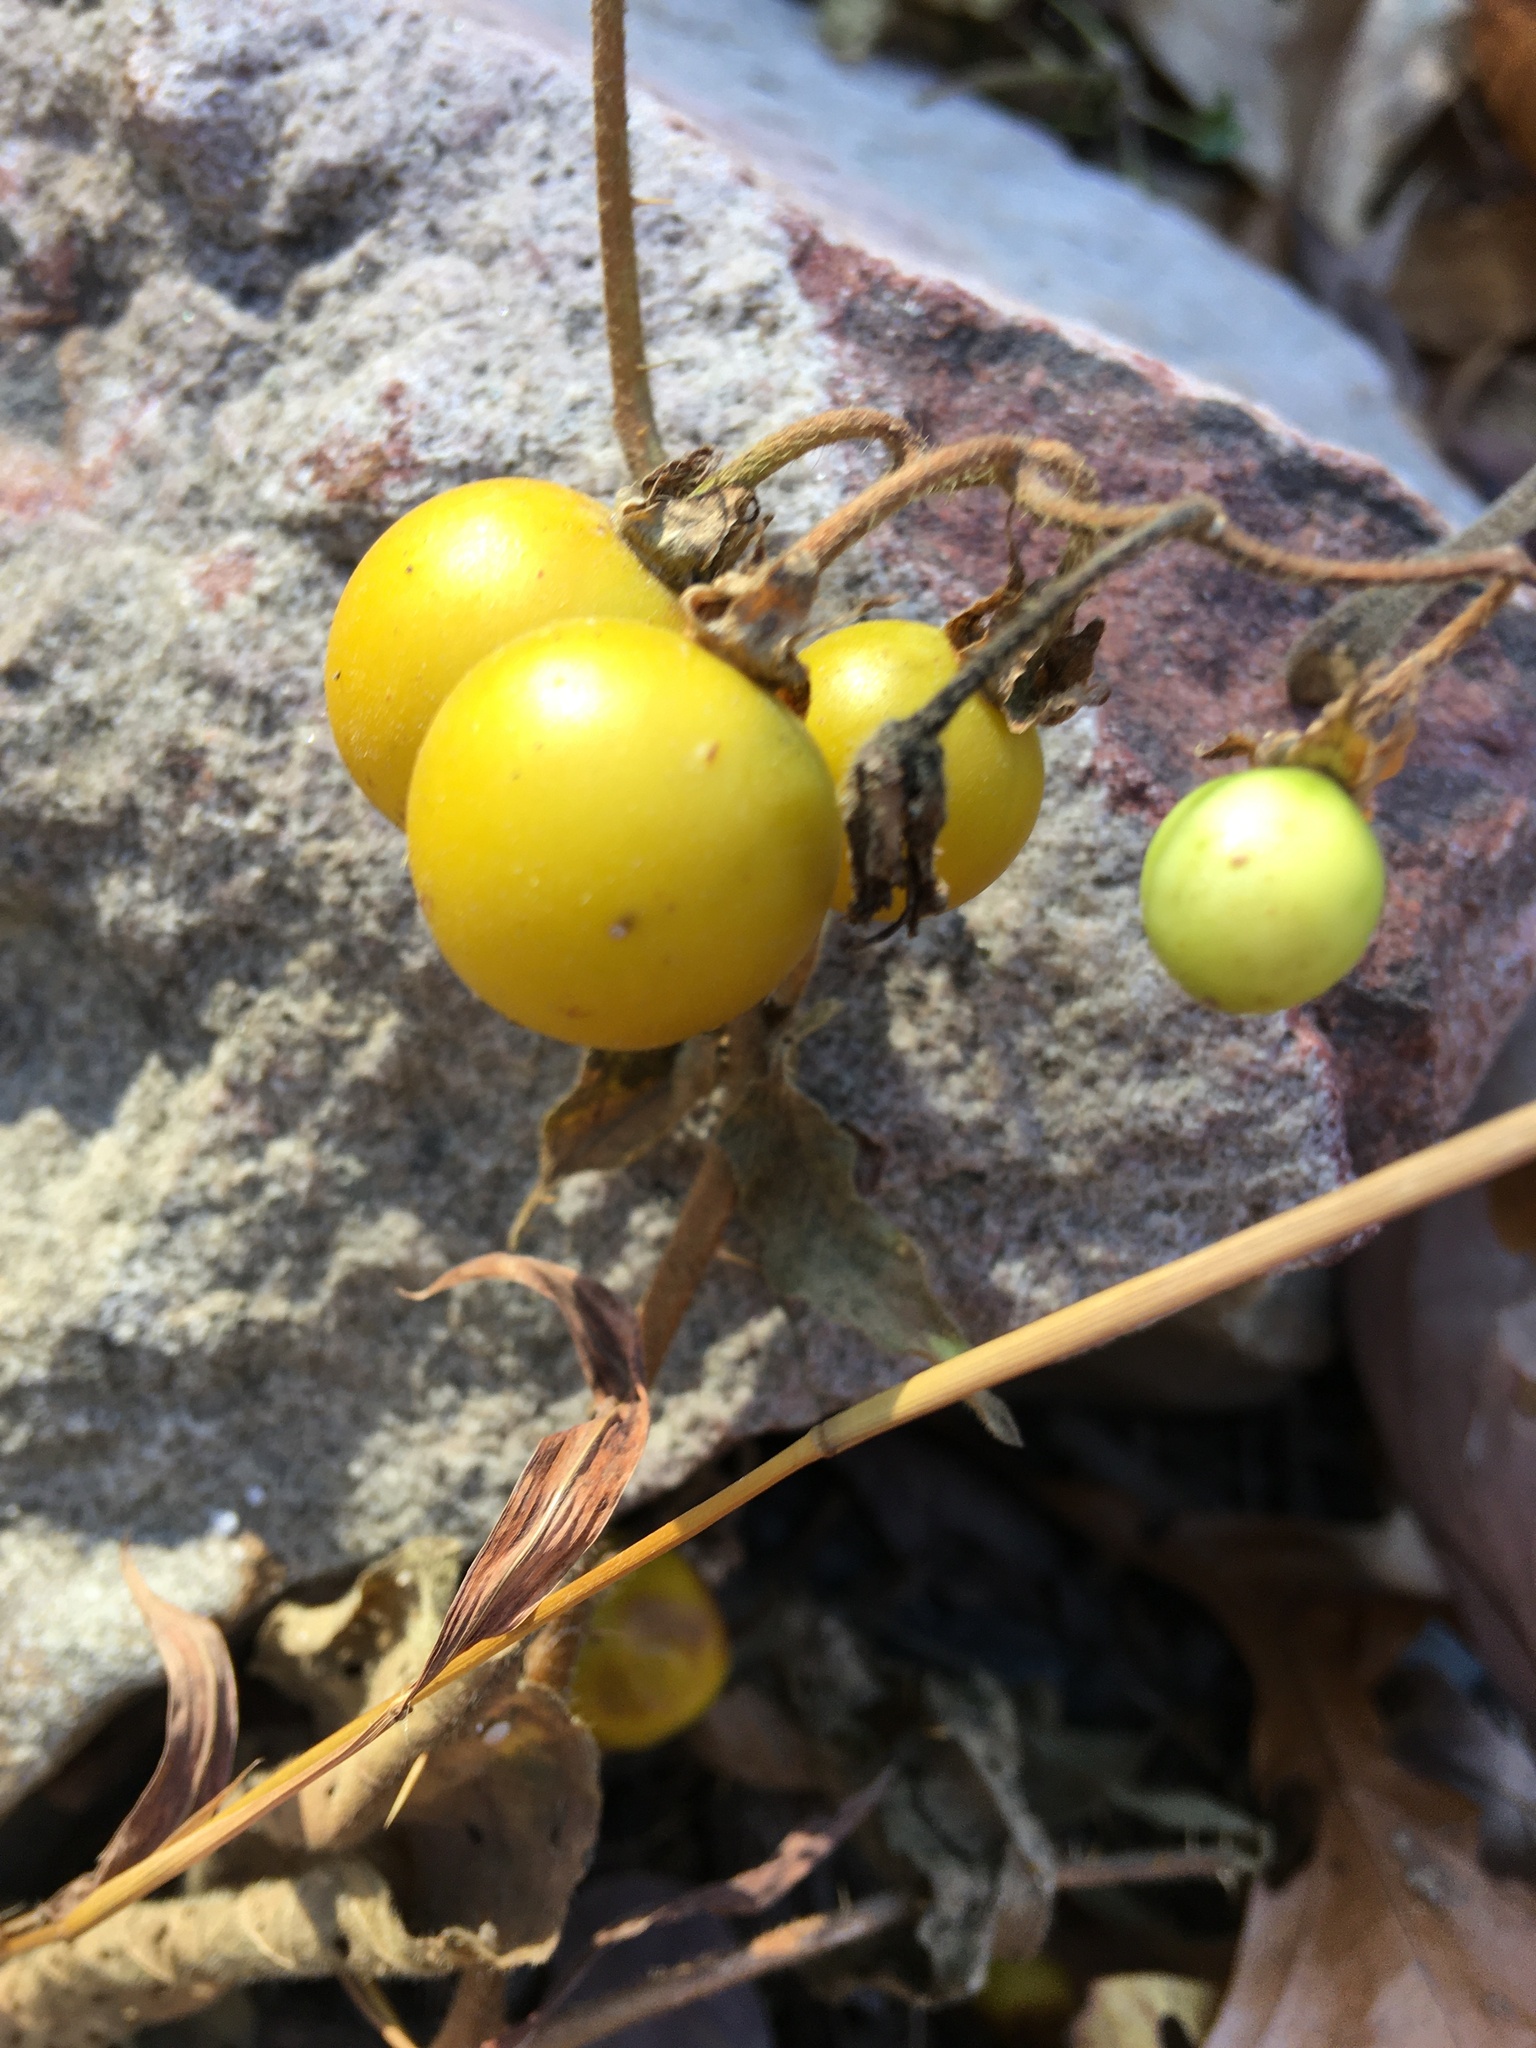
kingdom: Plantae
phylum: Tracheophyta
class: Magnoliopsida
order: Solanales
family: Solanaceae
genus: Solanum
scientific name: Solanum carolinense
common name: Horse-nettle
